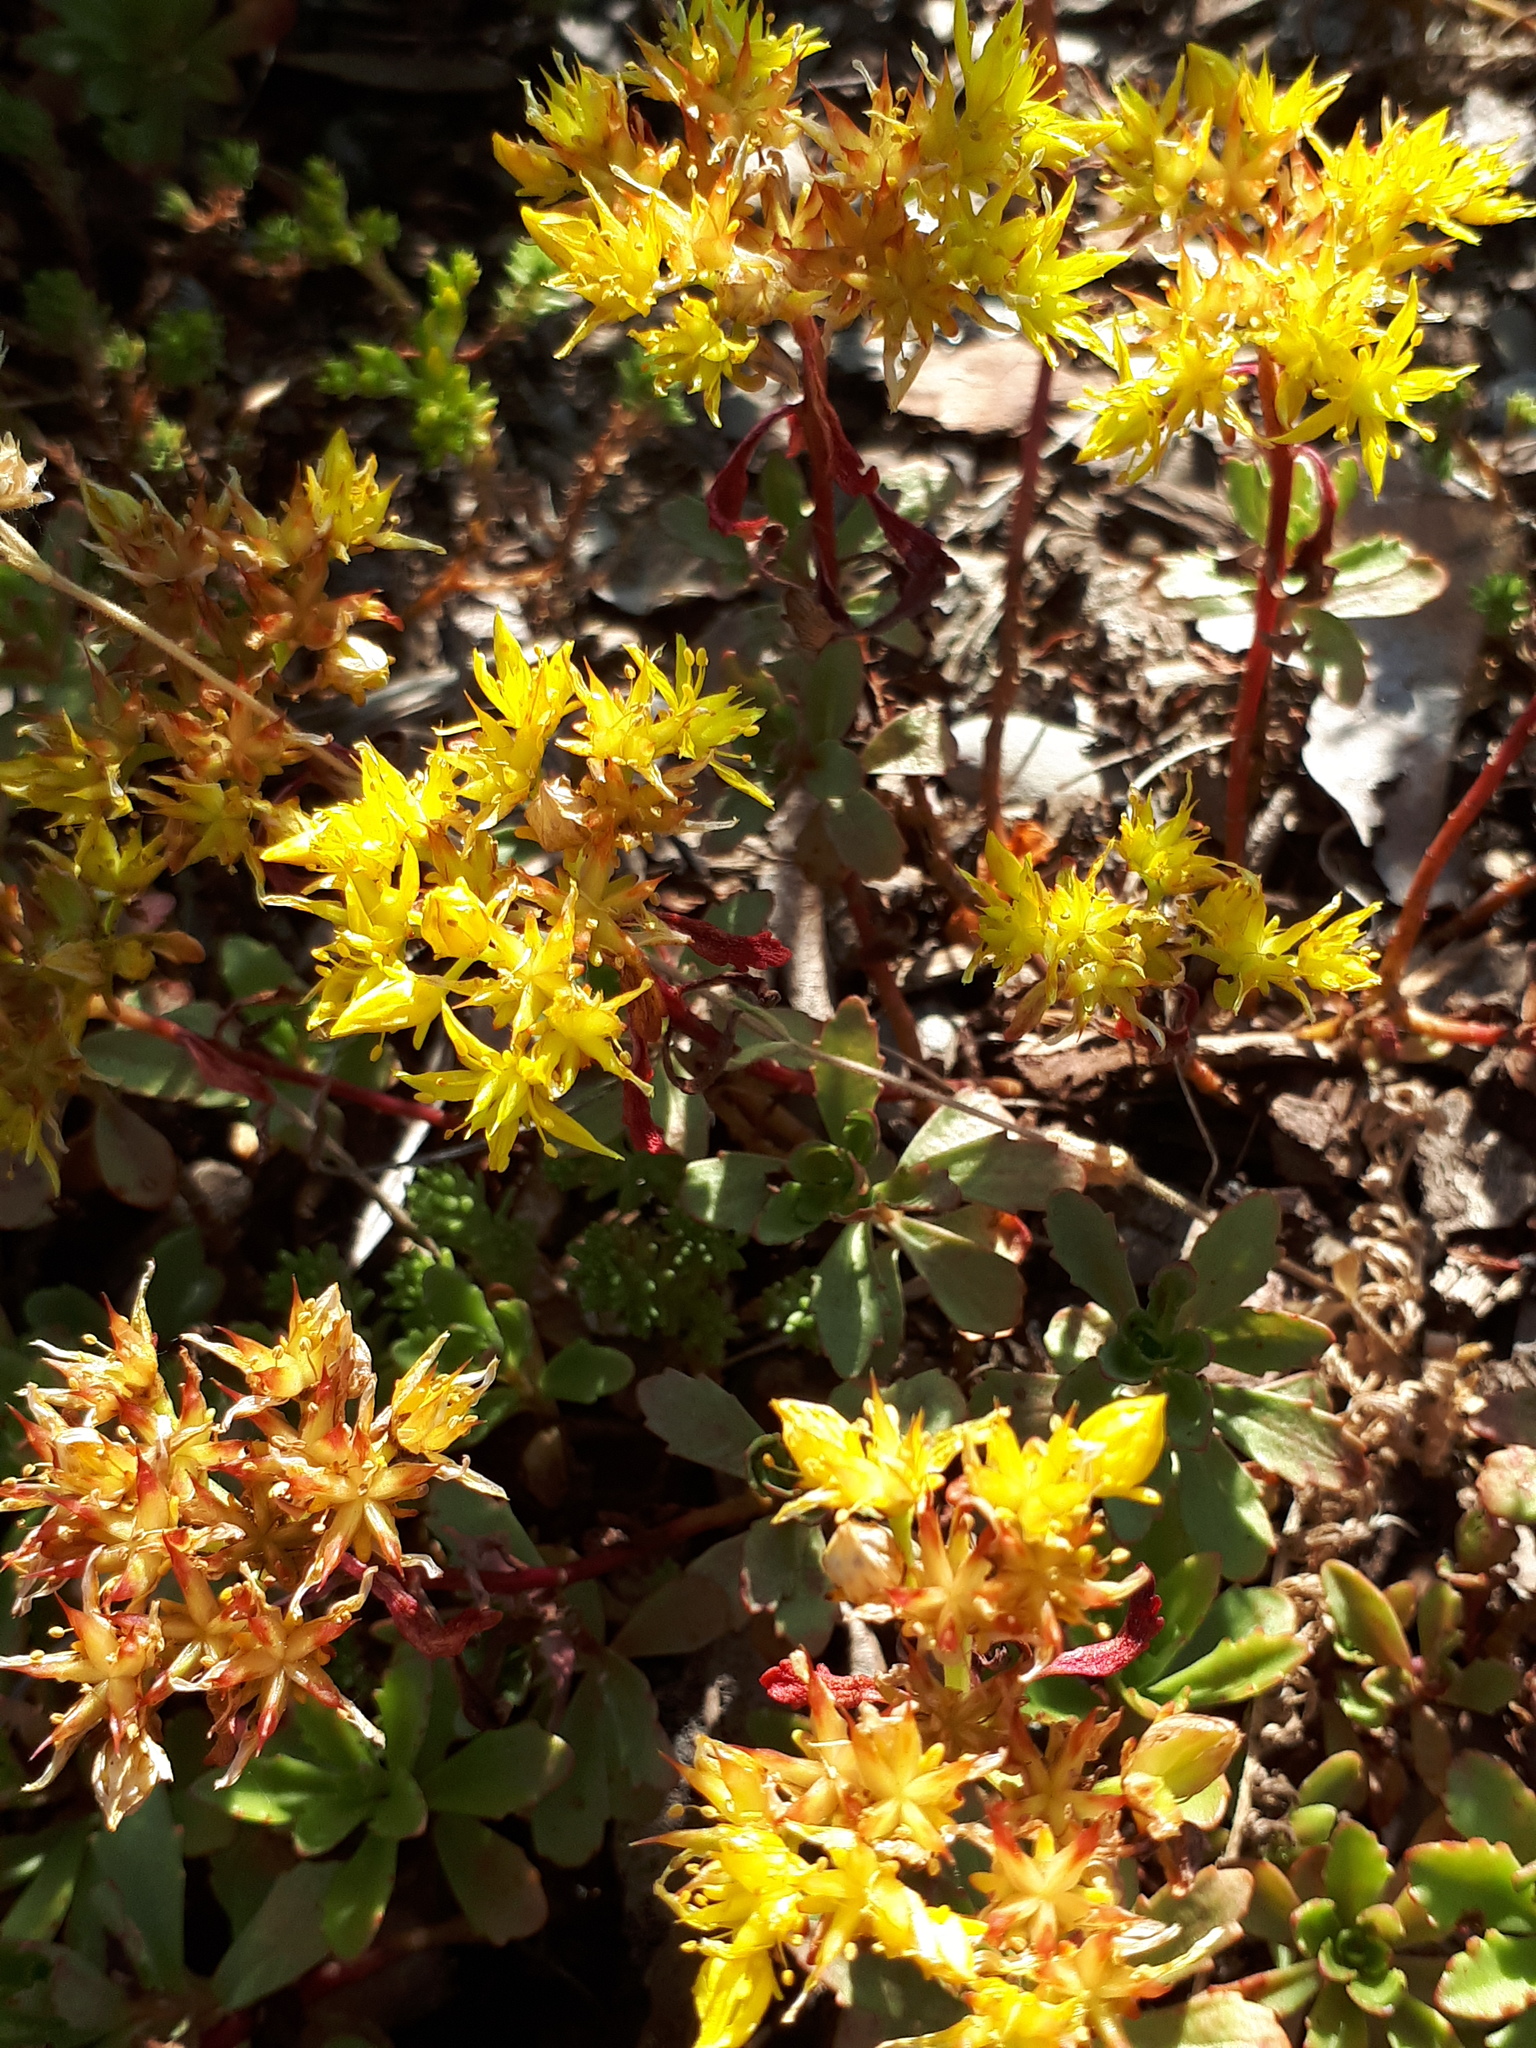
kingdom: Plantae
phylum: Tracheophyta
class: Magnoliopsida
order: Saxifragales
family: Crassulaceae
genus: Phedimus
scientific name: Phedimus hybridus
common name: Hybrid stonecrop
